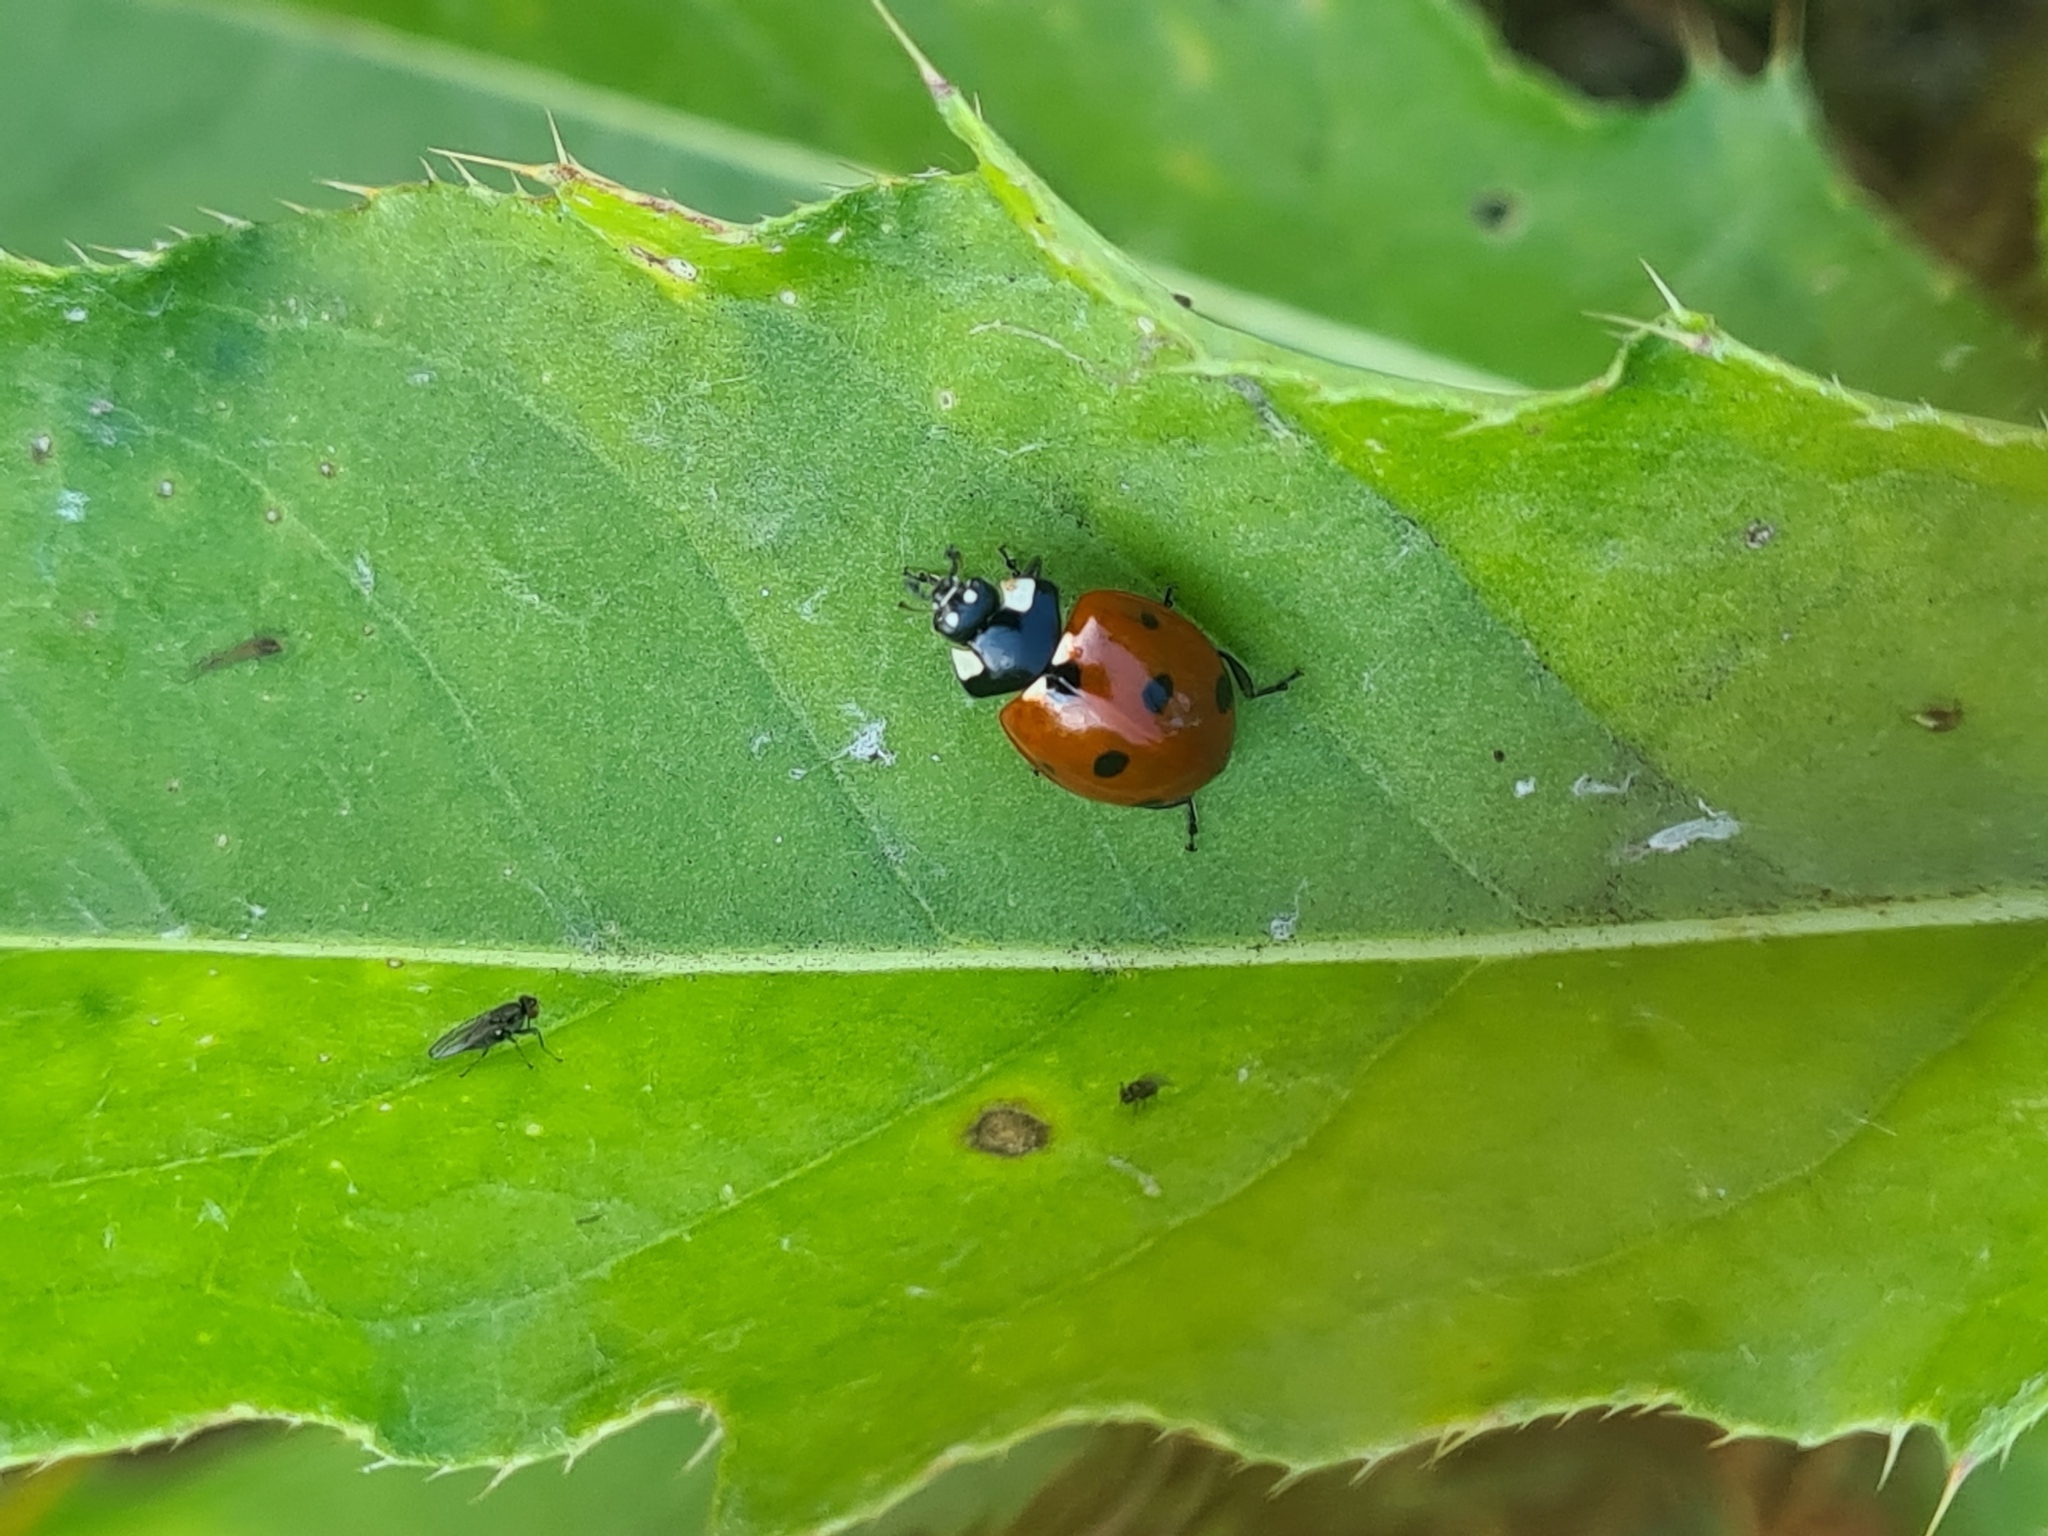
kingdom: Animalia
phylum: Arthropoda
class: Insecta
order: Coleoptera
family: Coccinellidae
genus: Coccinella
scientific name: Coccinella septempunctata
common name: Sevenspotted lady beetle
